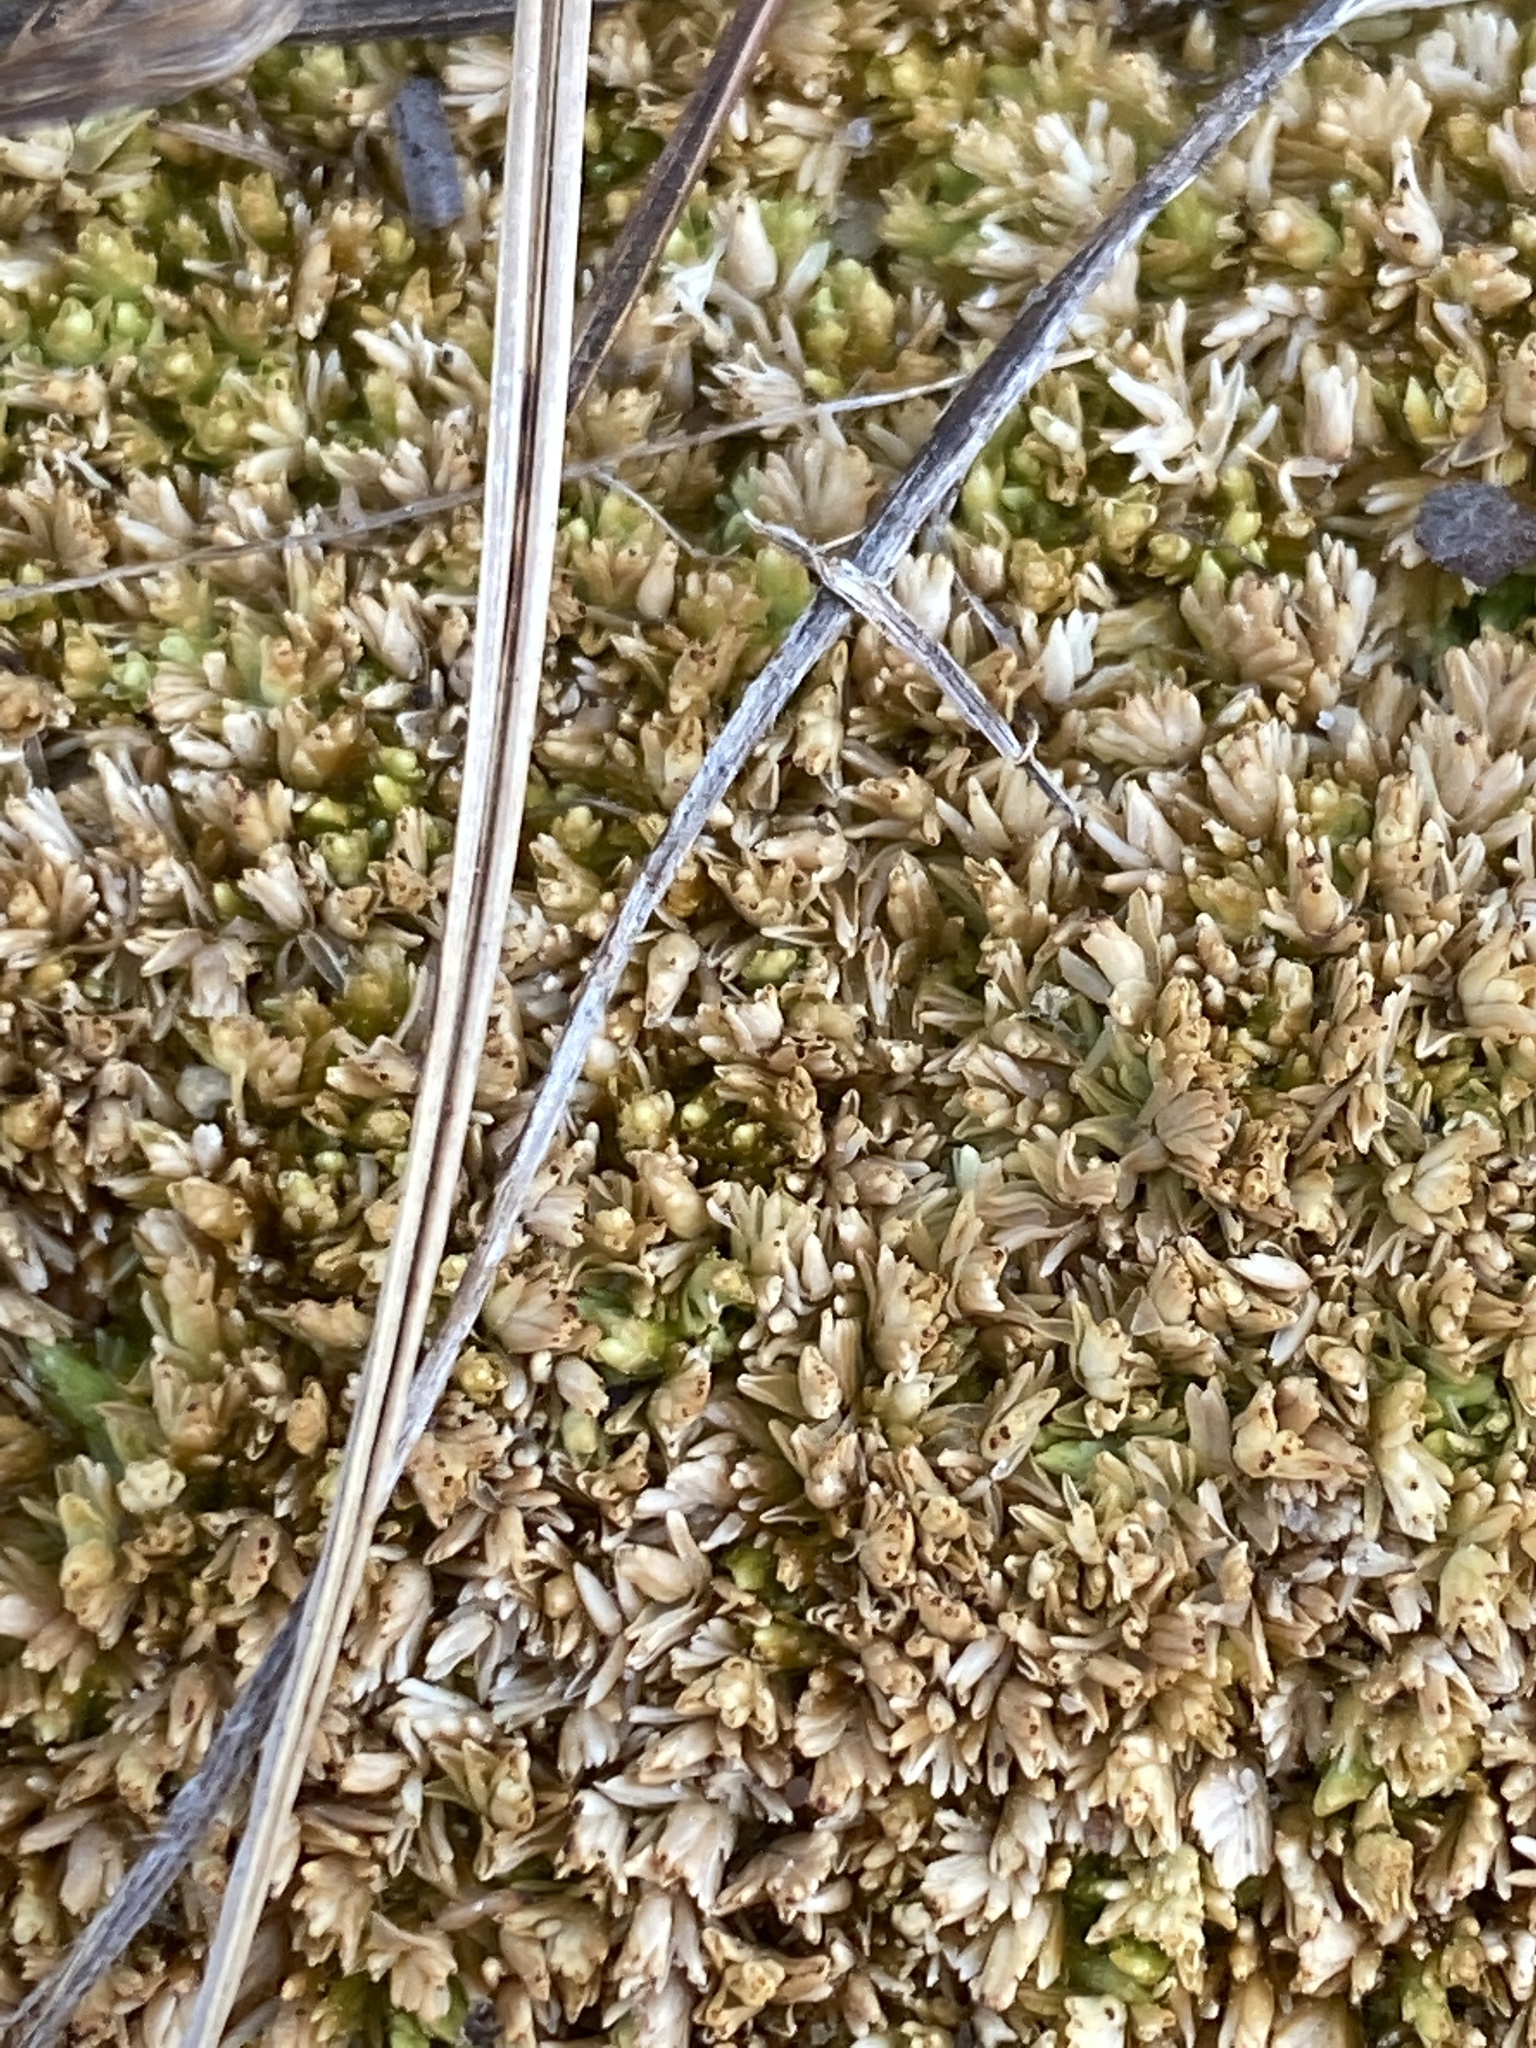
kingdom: Plantae
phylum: Bryophyta
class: Sphagnopsida
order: Sphagnales
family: Sphagnaceae
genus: Sphagnum
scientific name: Sphagnum compactum
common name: Compact peat moss
